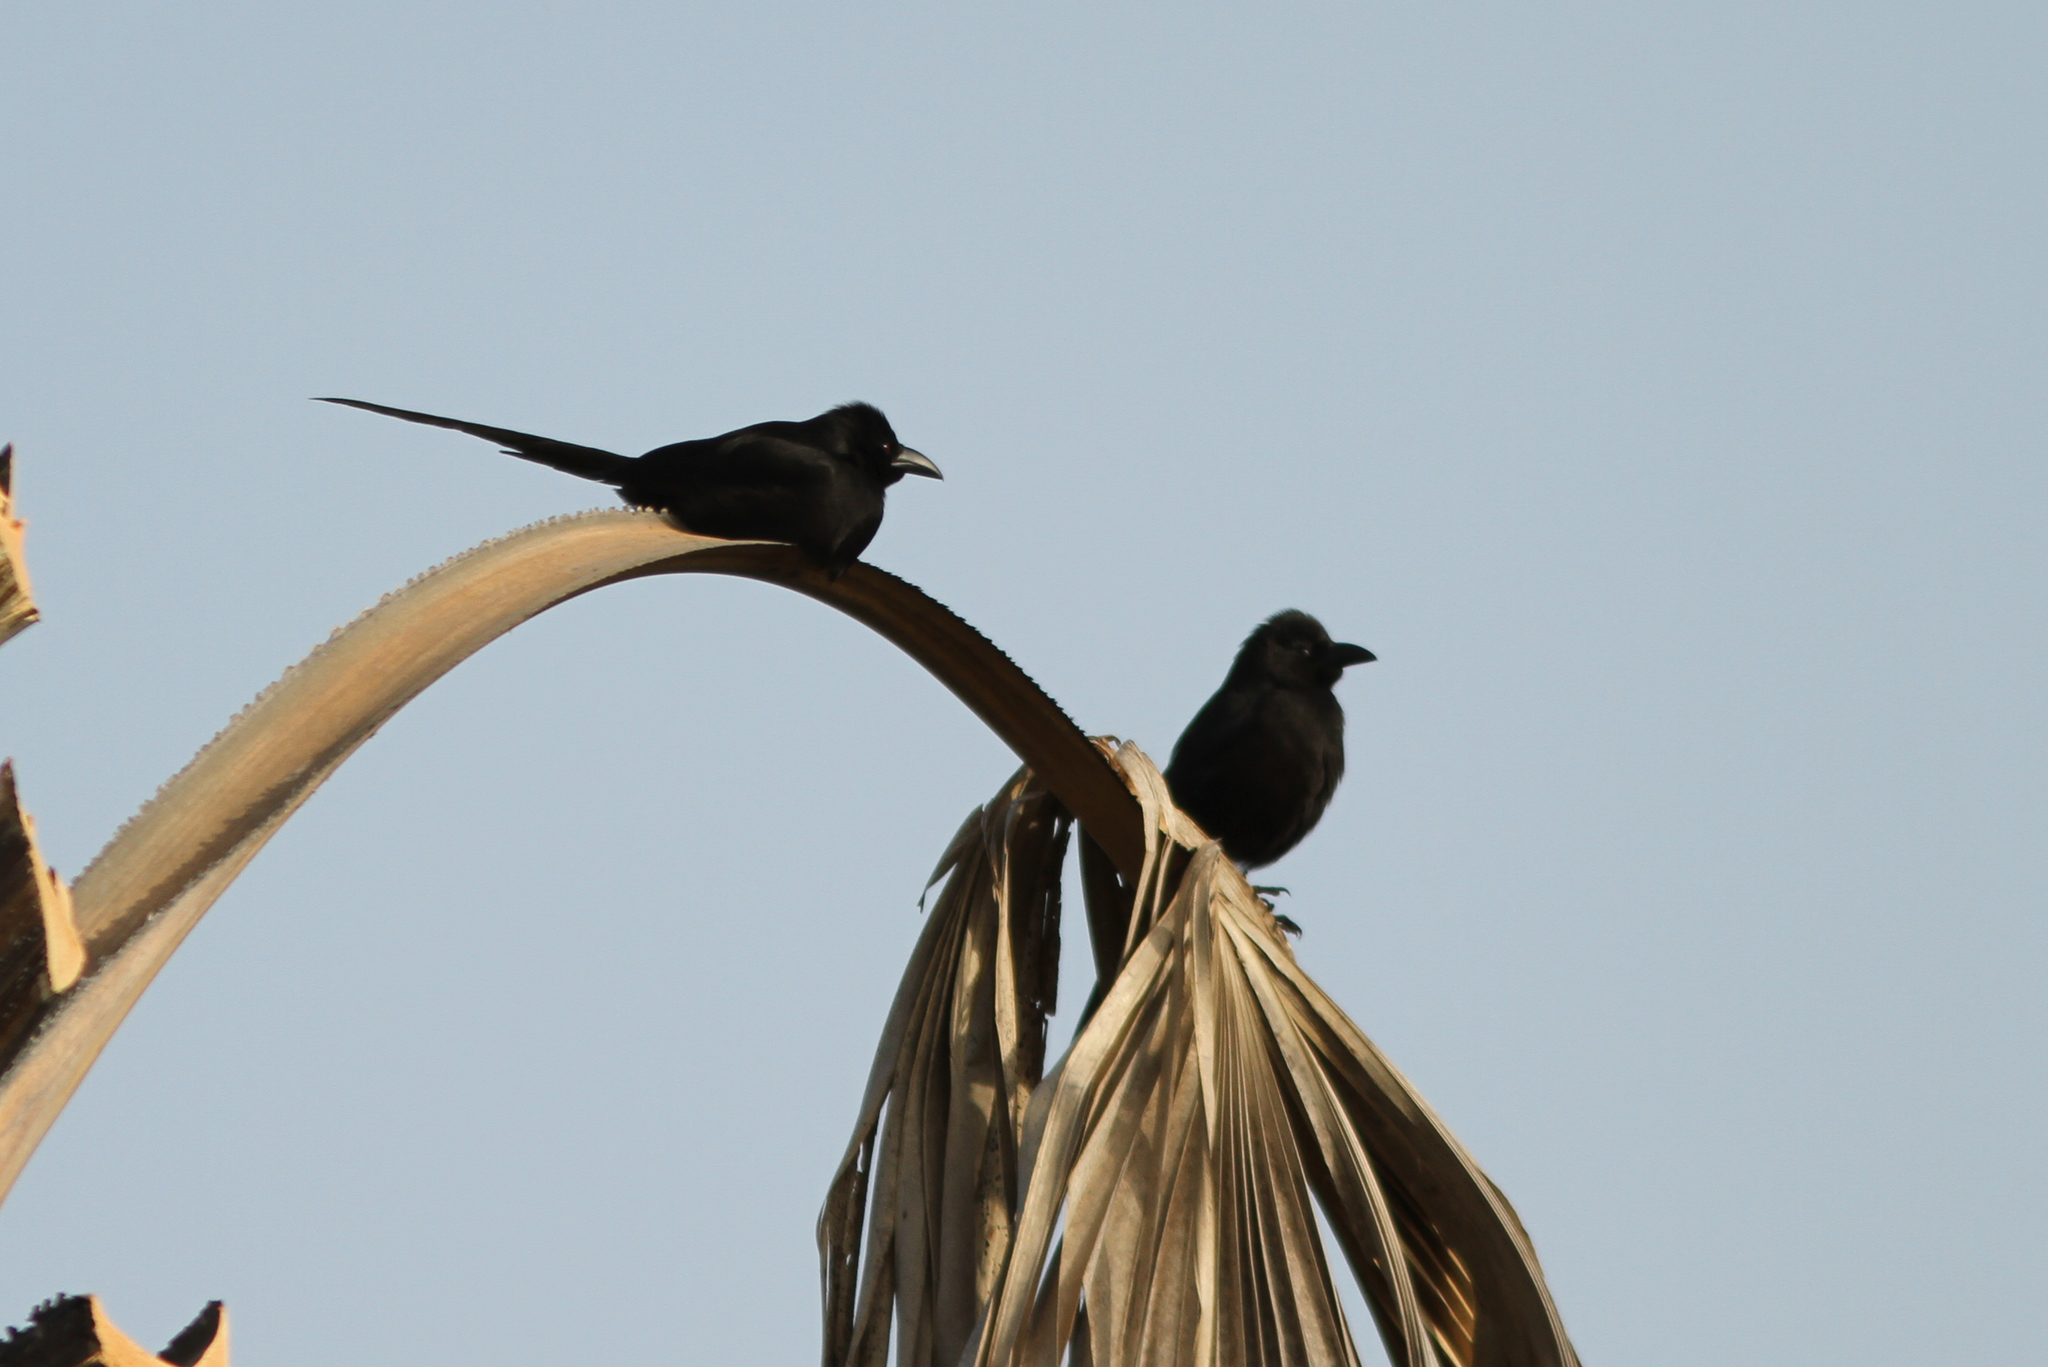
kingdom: Animalia
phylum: Chordata
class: Aves
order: Passeriformes
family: Corvidae
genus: Ptilostomus
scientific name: Ptilostomus afer
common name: Piapiac
